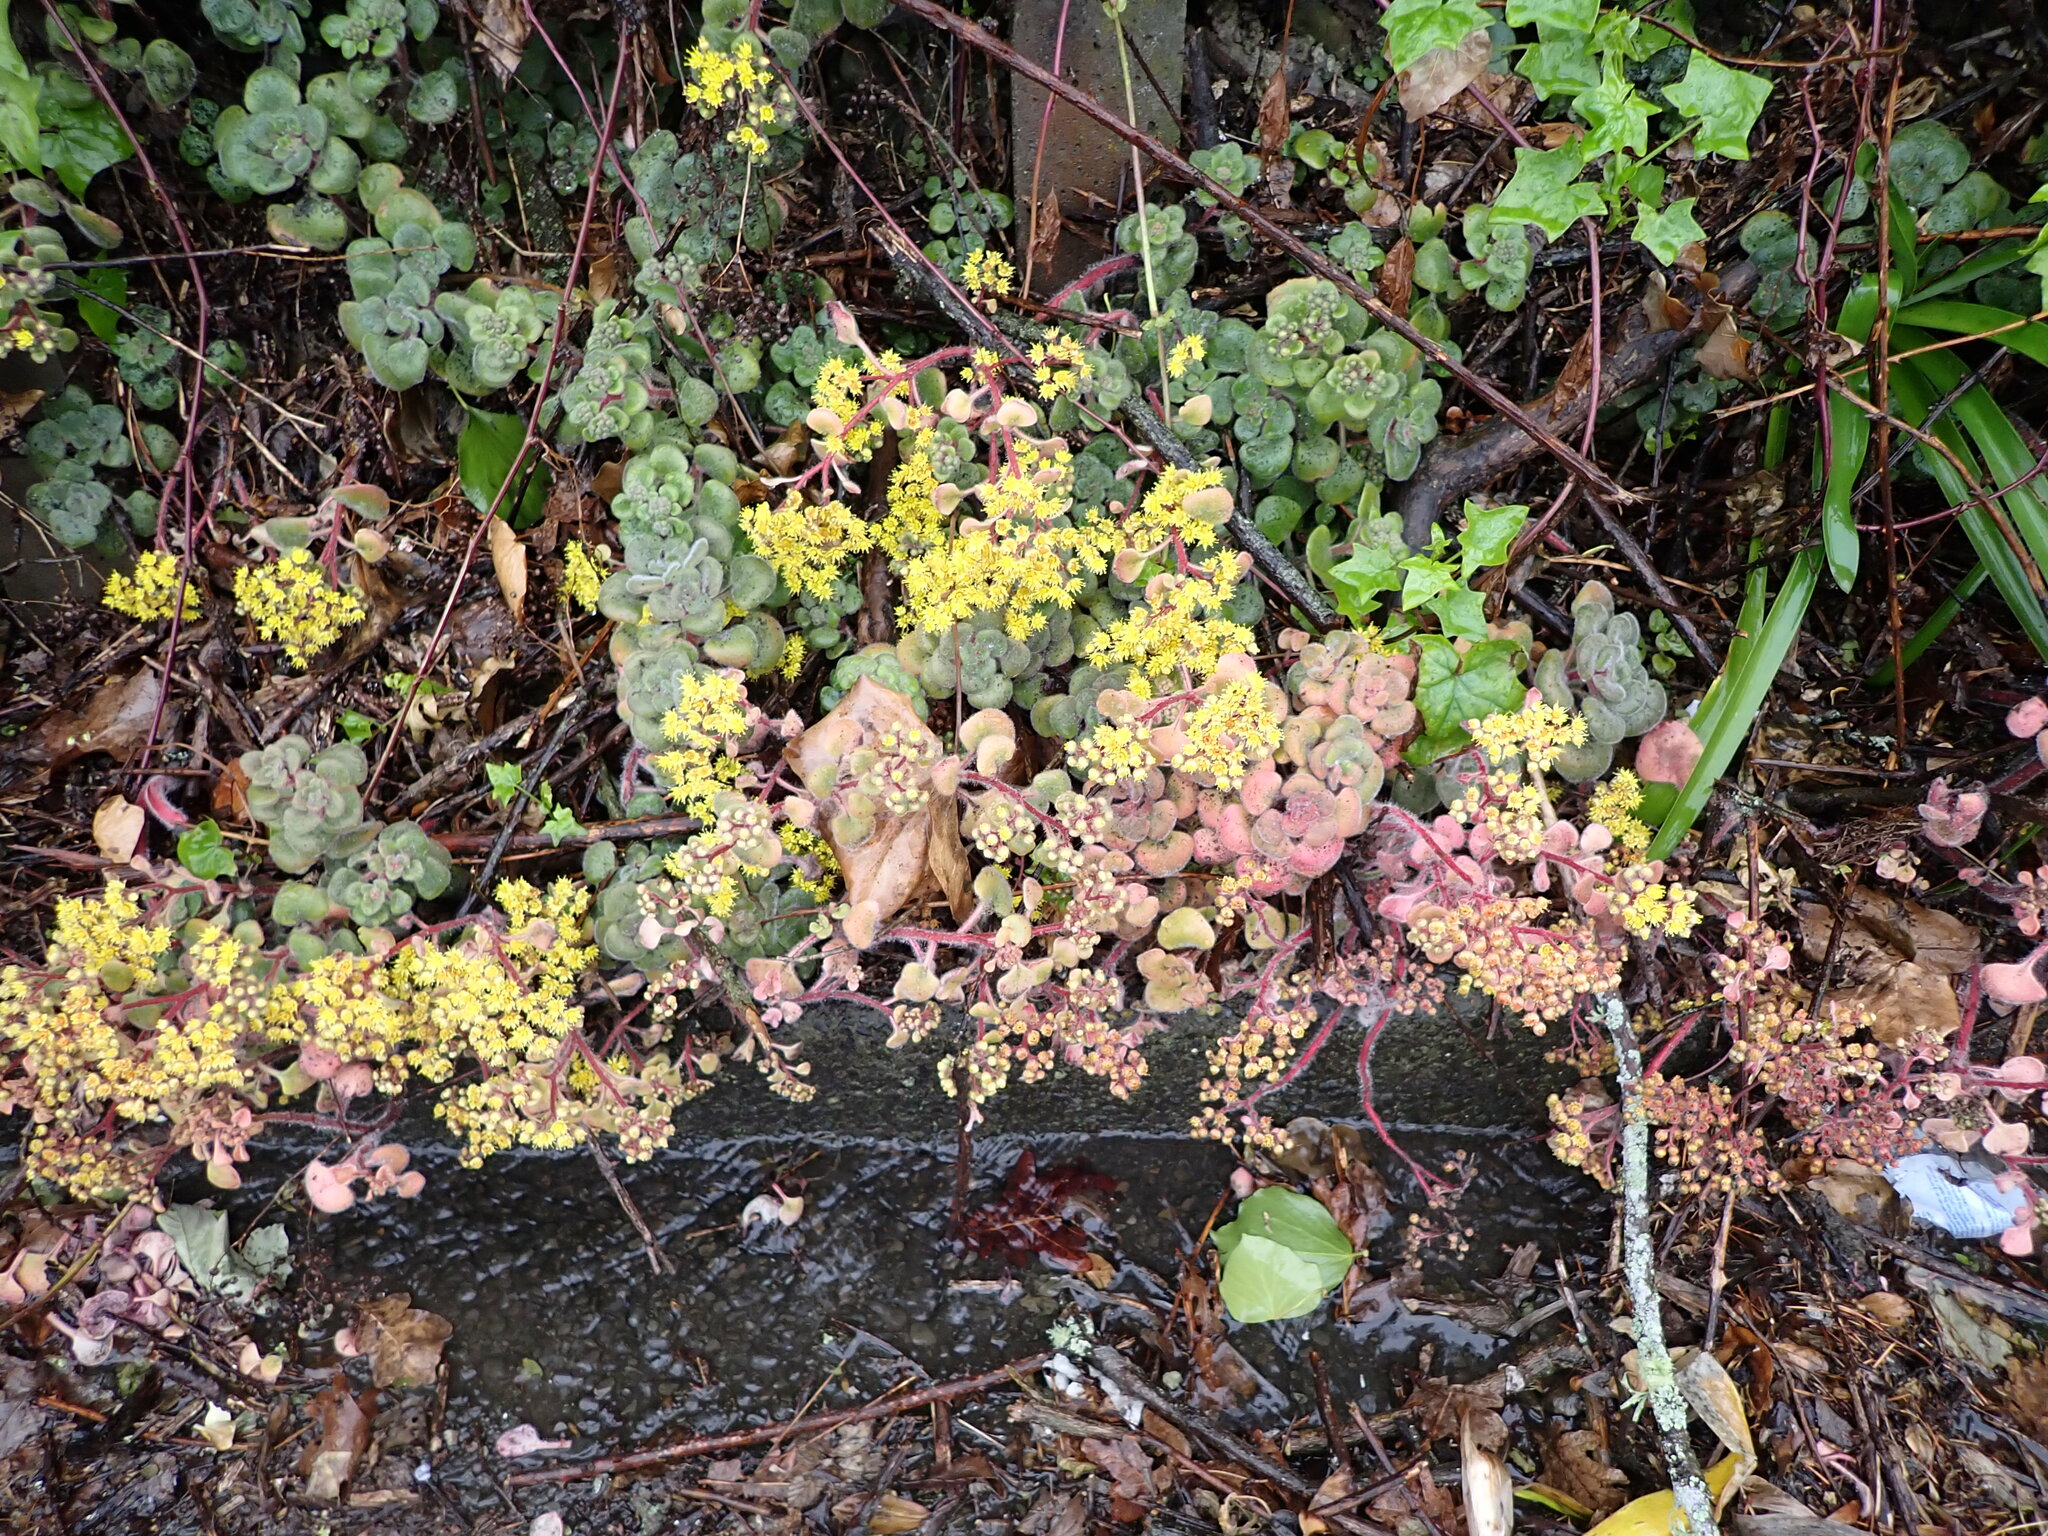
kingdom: Plantae
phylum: Tracheophyta
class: Magnoliopsida
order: Saxifragales
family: Crassulaceae
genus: Aichryson
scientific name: Aichryson laxum
